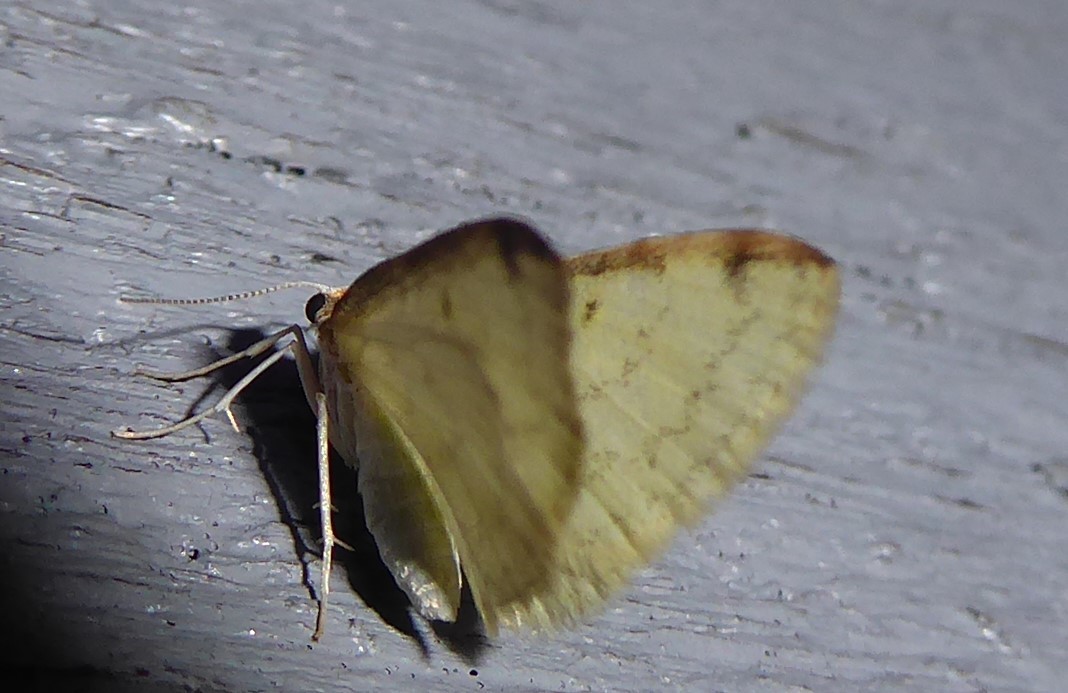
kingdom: Animalia
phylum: Arthropoda
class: Insecta
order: Lepidoptera
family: Geometridae
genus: Epiphryne
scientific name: Epiphryne undosata
